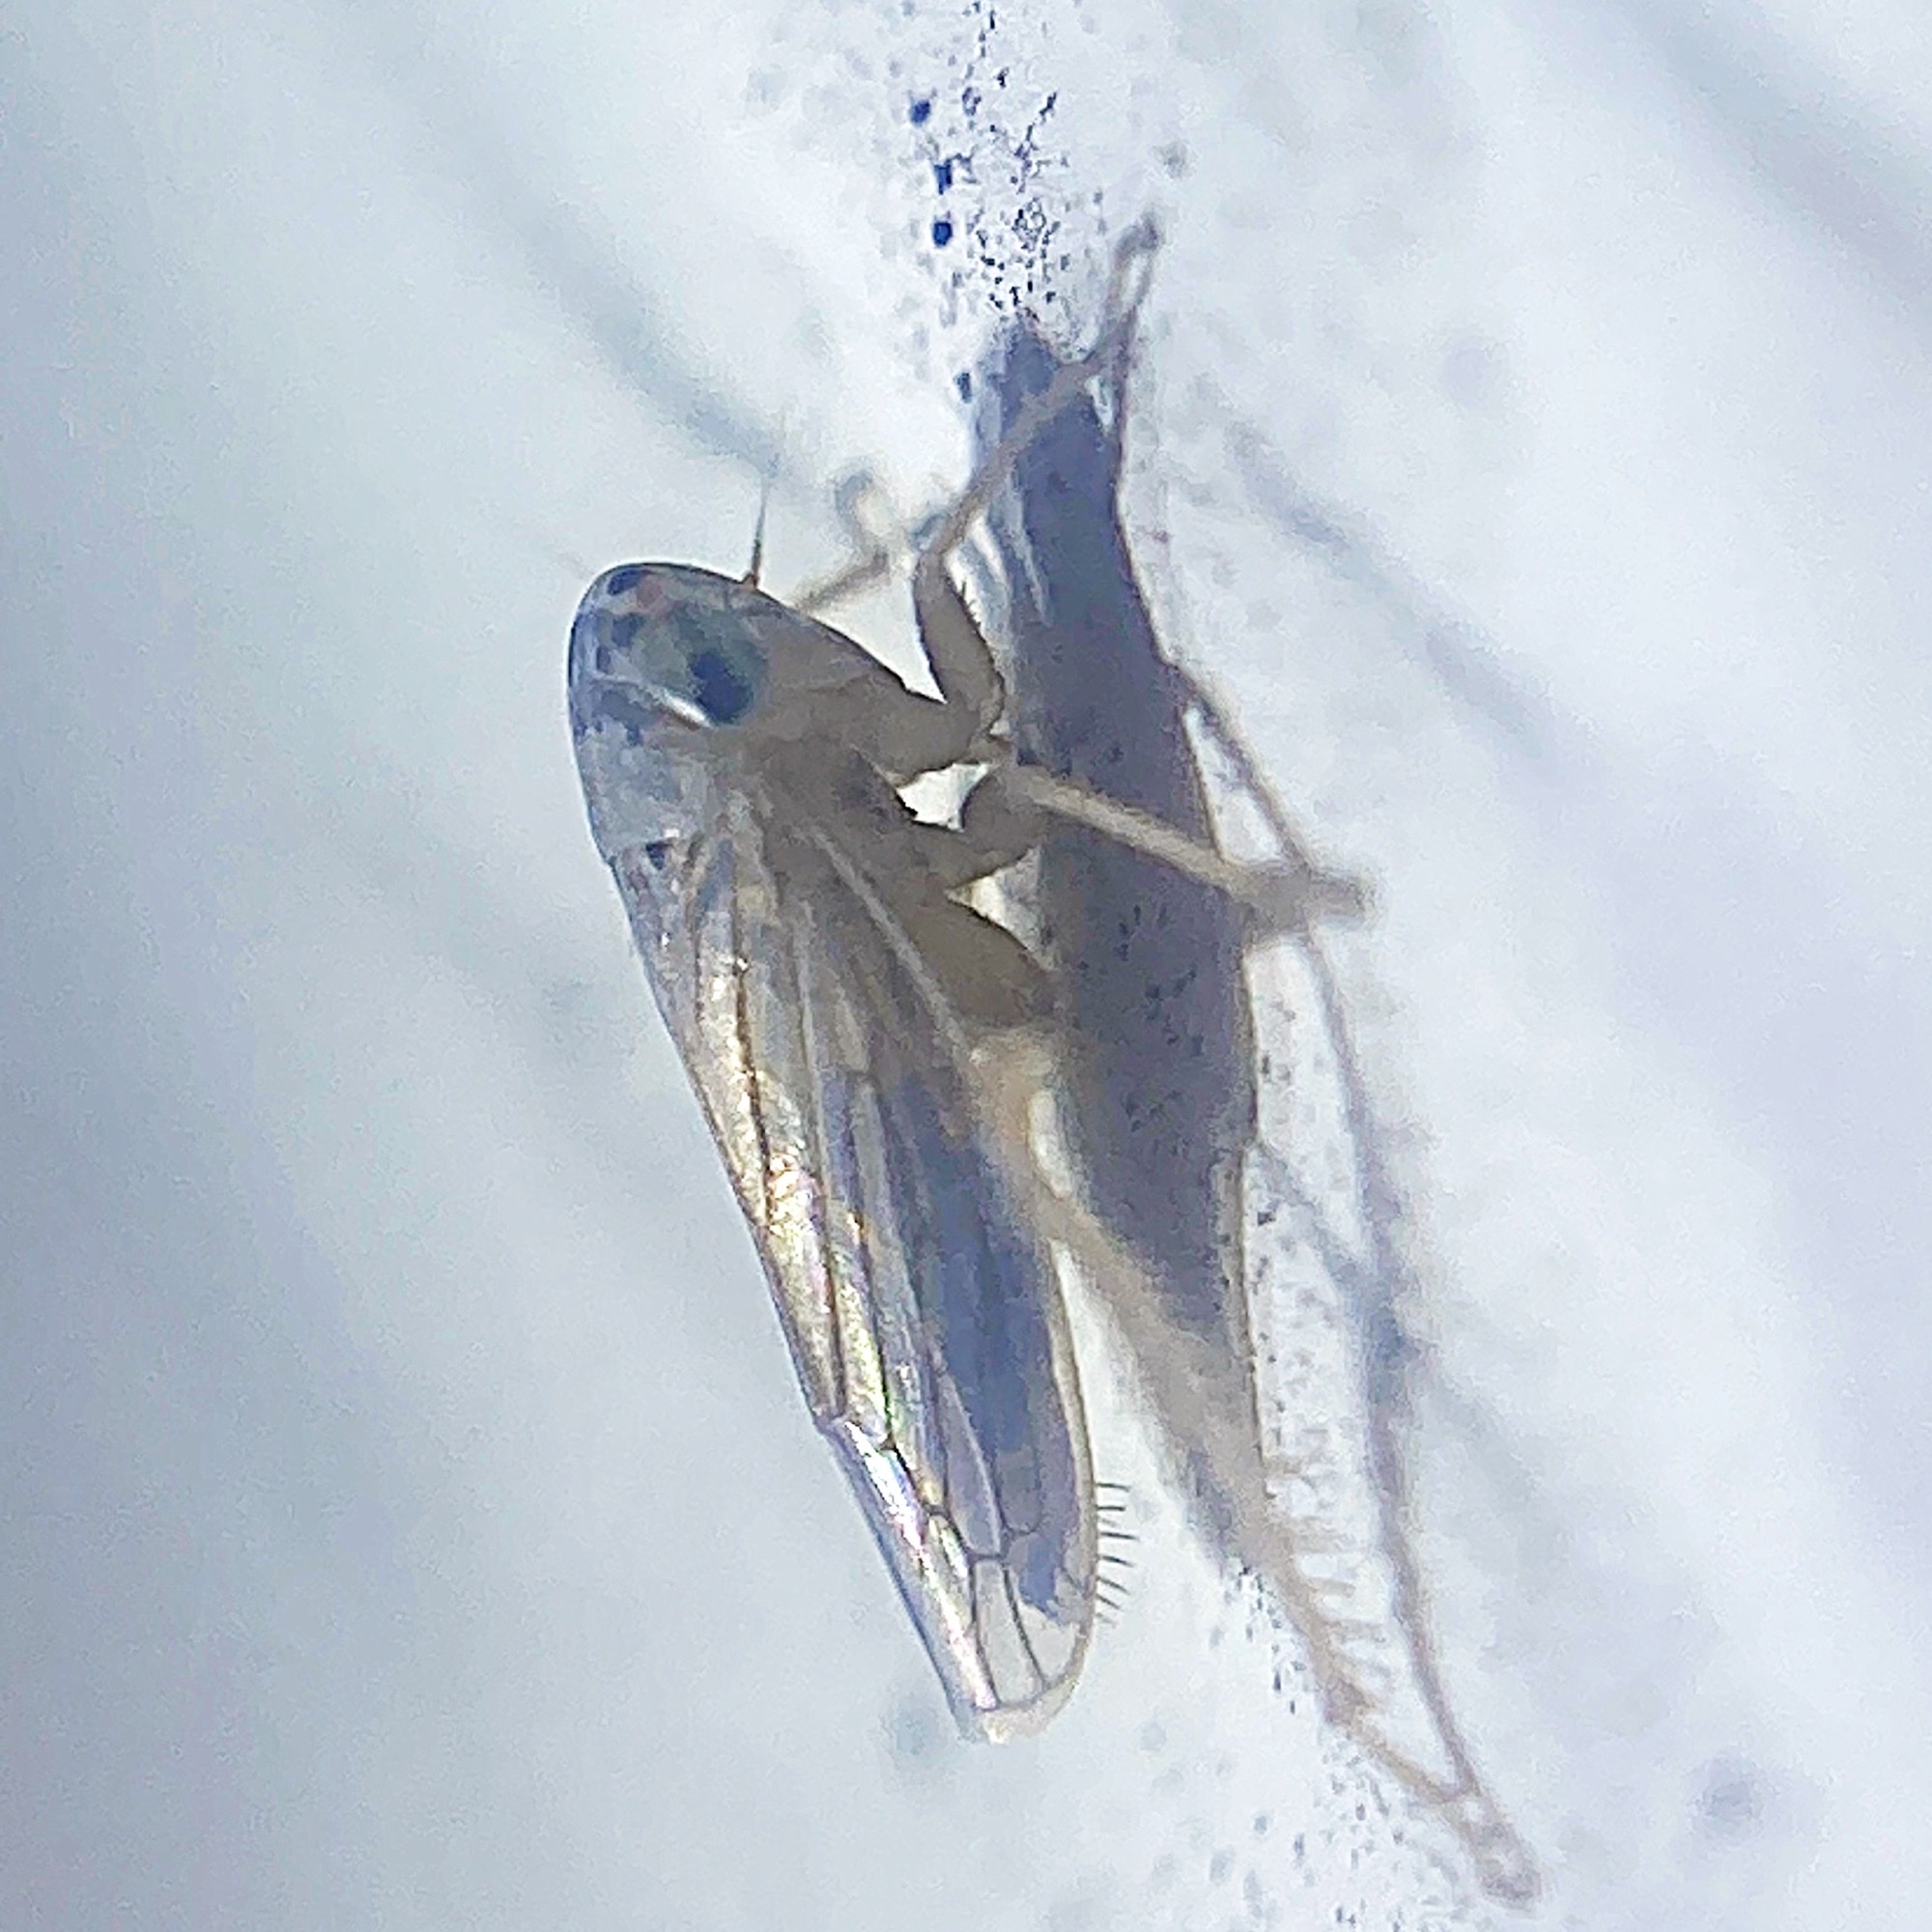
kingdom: Animalia
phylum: Arthropoda
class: Insecta
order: Hemiptera
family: Cicadellidae
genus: Exitianus
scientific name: Exitianus exitiosus
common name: Gray lawn leafhopper
